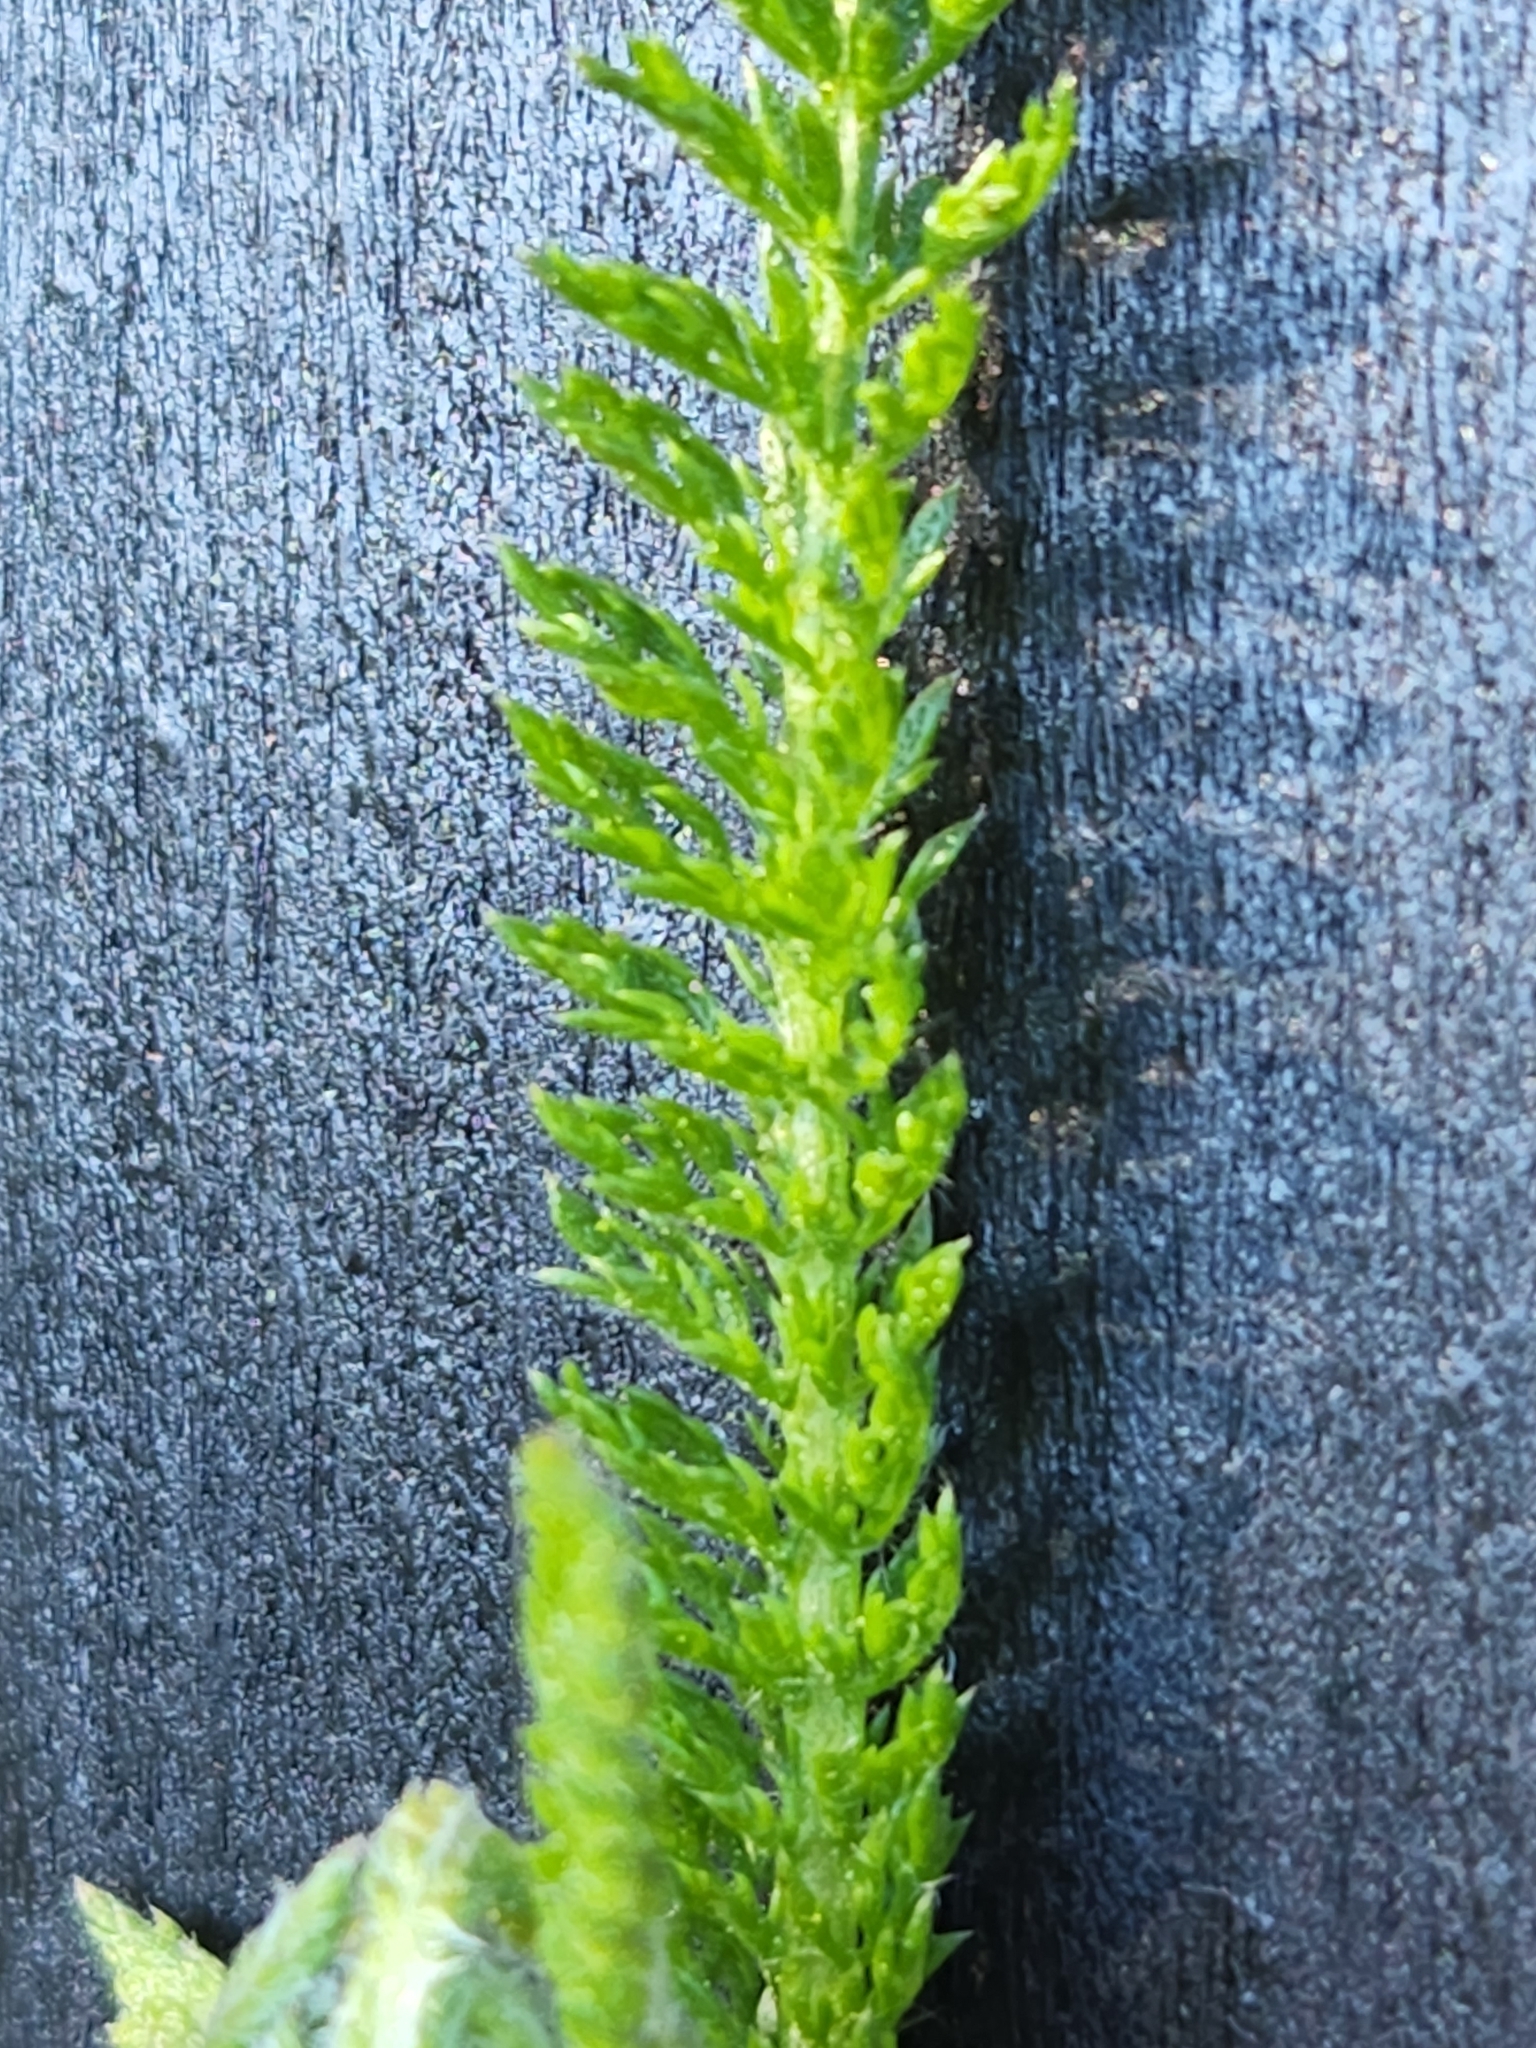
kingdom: Plantae
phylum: Tracheophyta
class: Magnoliopsida
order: Asterales
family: Asteraceae
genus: Achillea
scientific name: Achillea millefolium
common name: Yarrow
